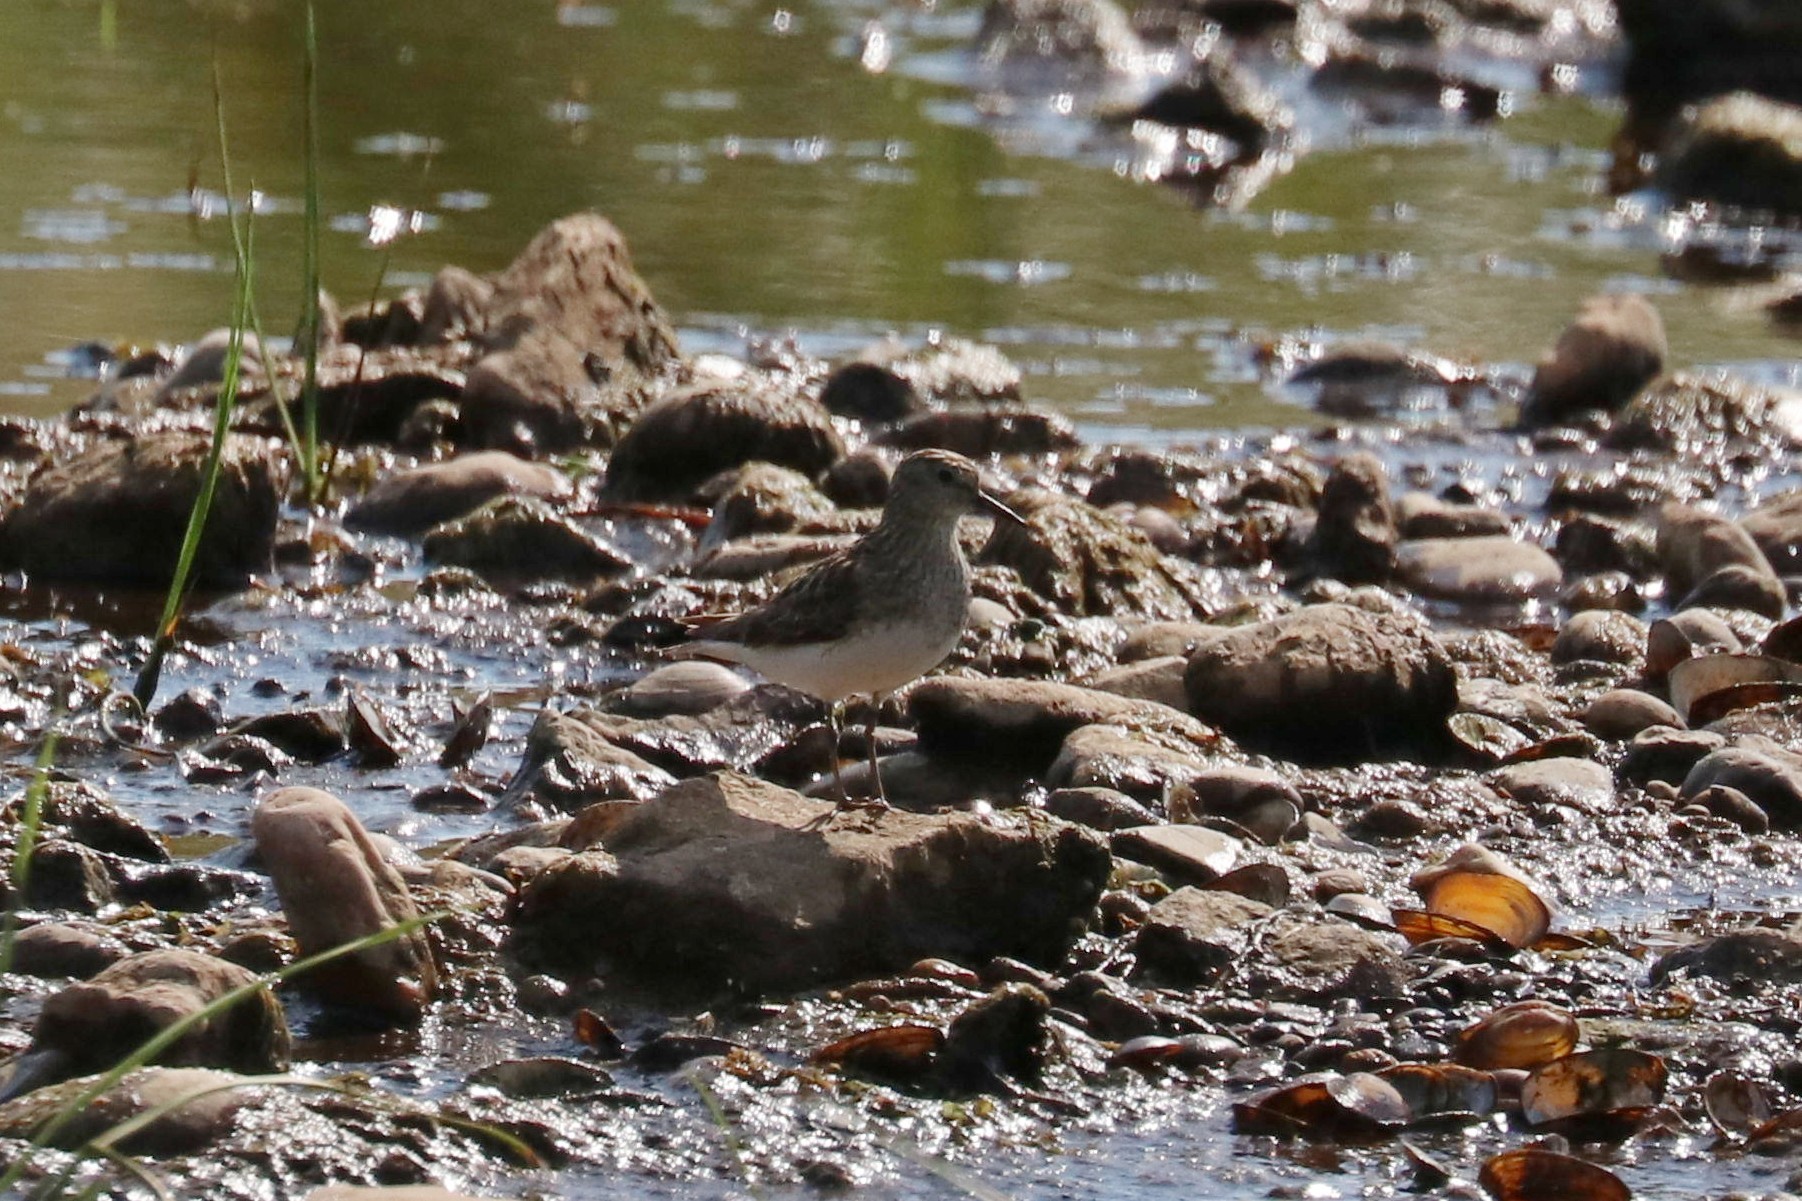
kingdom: Animalia
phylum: Chordata
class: Aves
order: Charadriiformes
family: Scolopacidae
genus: Calidris
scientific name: Calidris temminckii
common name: Temminck's stint
